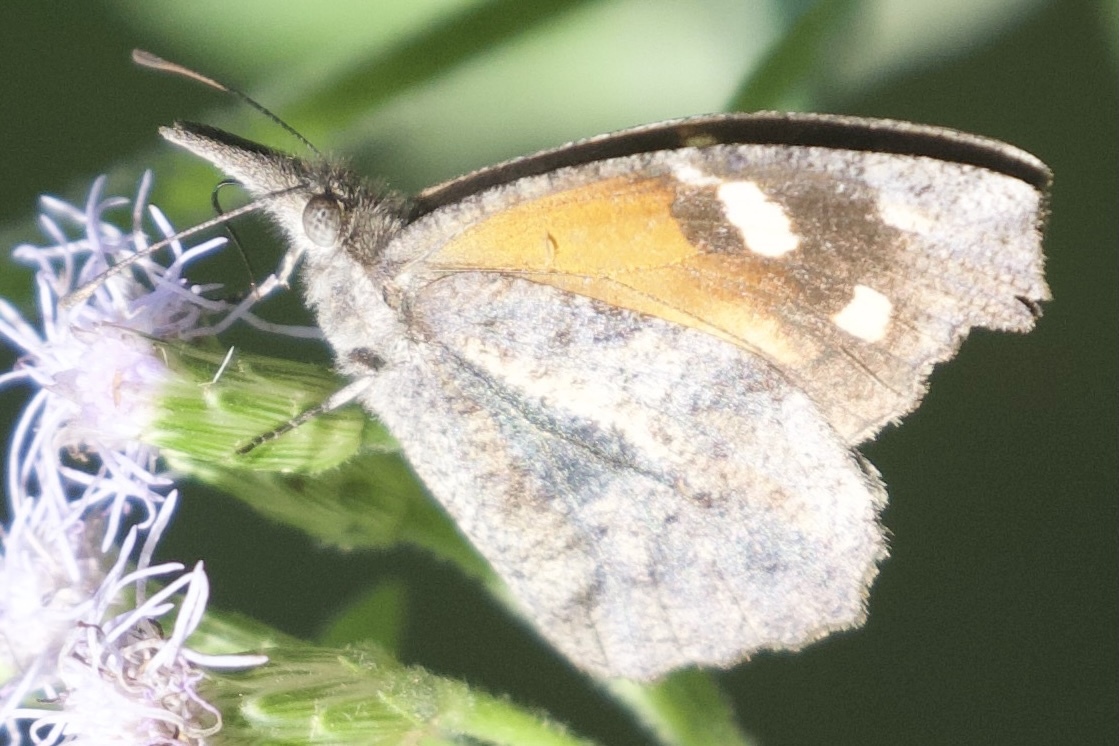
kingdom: Animalia
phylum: Arthropoda
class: Insecta
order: Lepidoptera
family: Nymphalidae
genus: Libytheana
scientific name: Libytheana carinenta
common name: American snout
